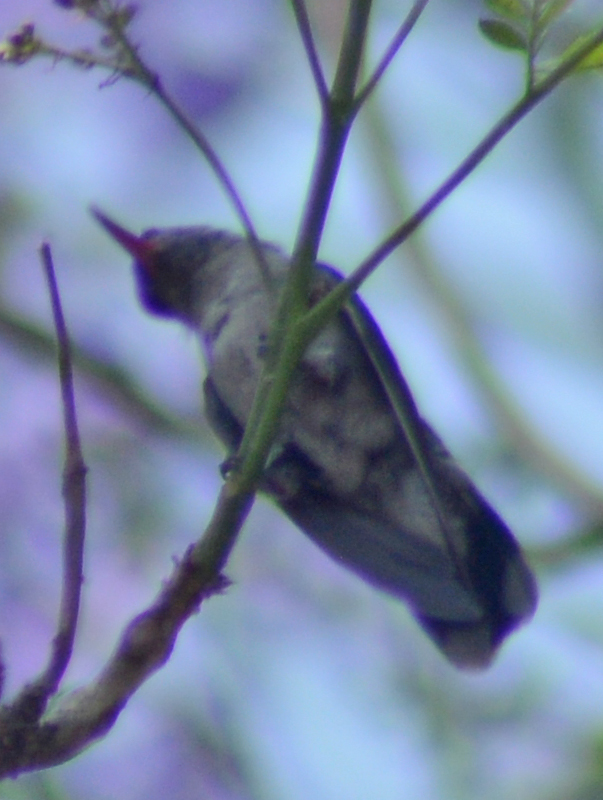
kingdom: Animalia
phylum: Chordata
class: Aves
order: Apodiformes
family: Trochilidae
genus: Cynanthus
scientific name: Cynanthus latirostris
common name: Broad-billed hummingbird
